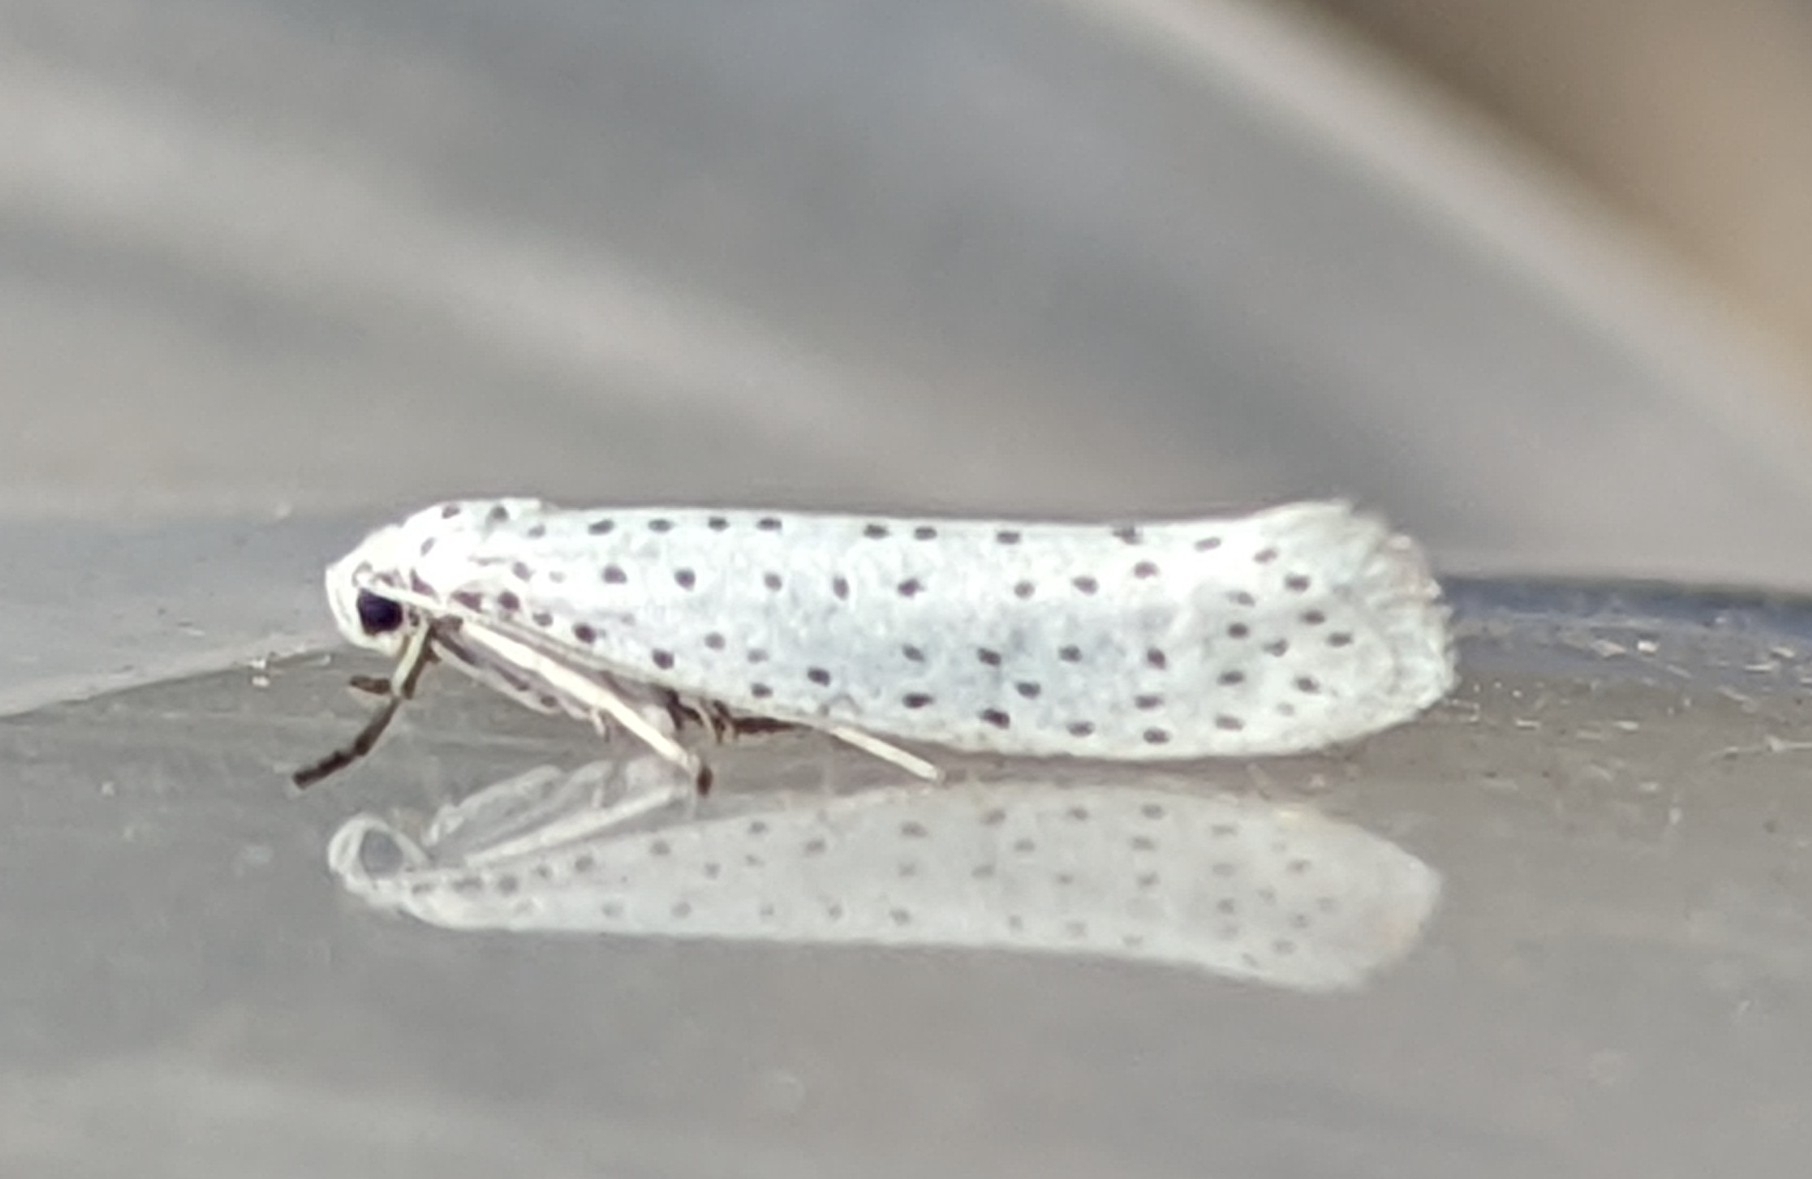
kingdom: Animalia
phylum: Arthropoda
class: Insecta
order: Lepidoptera
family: Yponomeutidae
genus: Yponomeuta
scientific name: Yponomeuta evonymella
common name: Bird-cherry ermine
